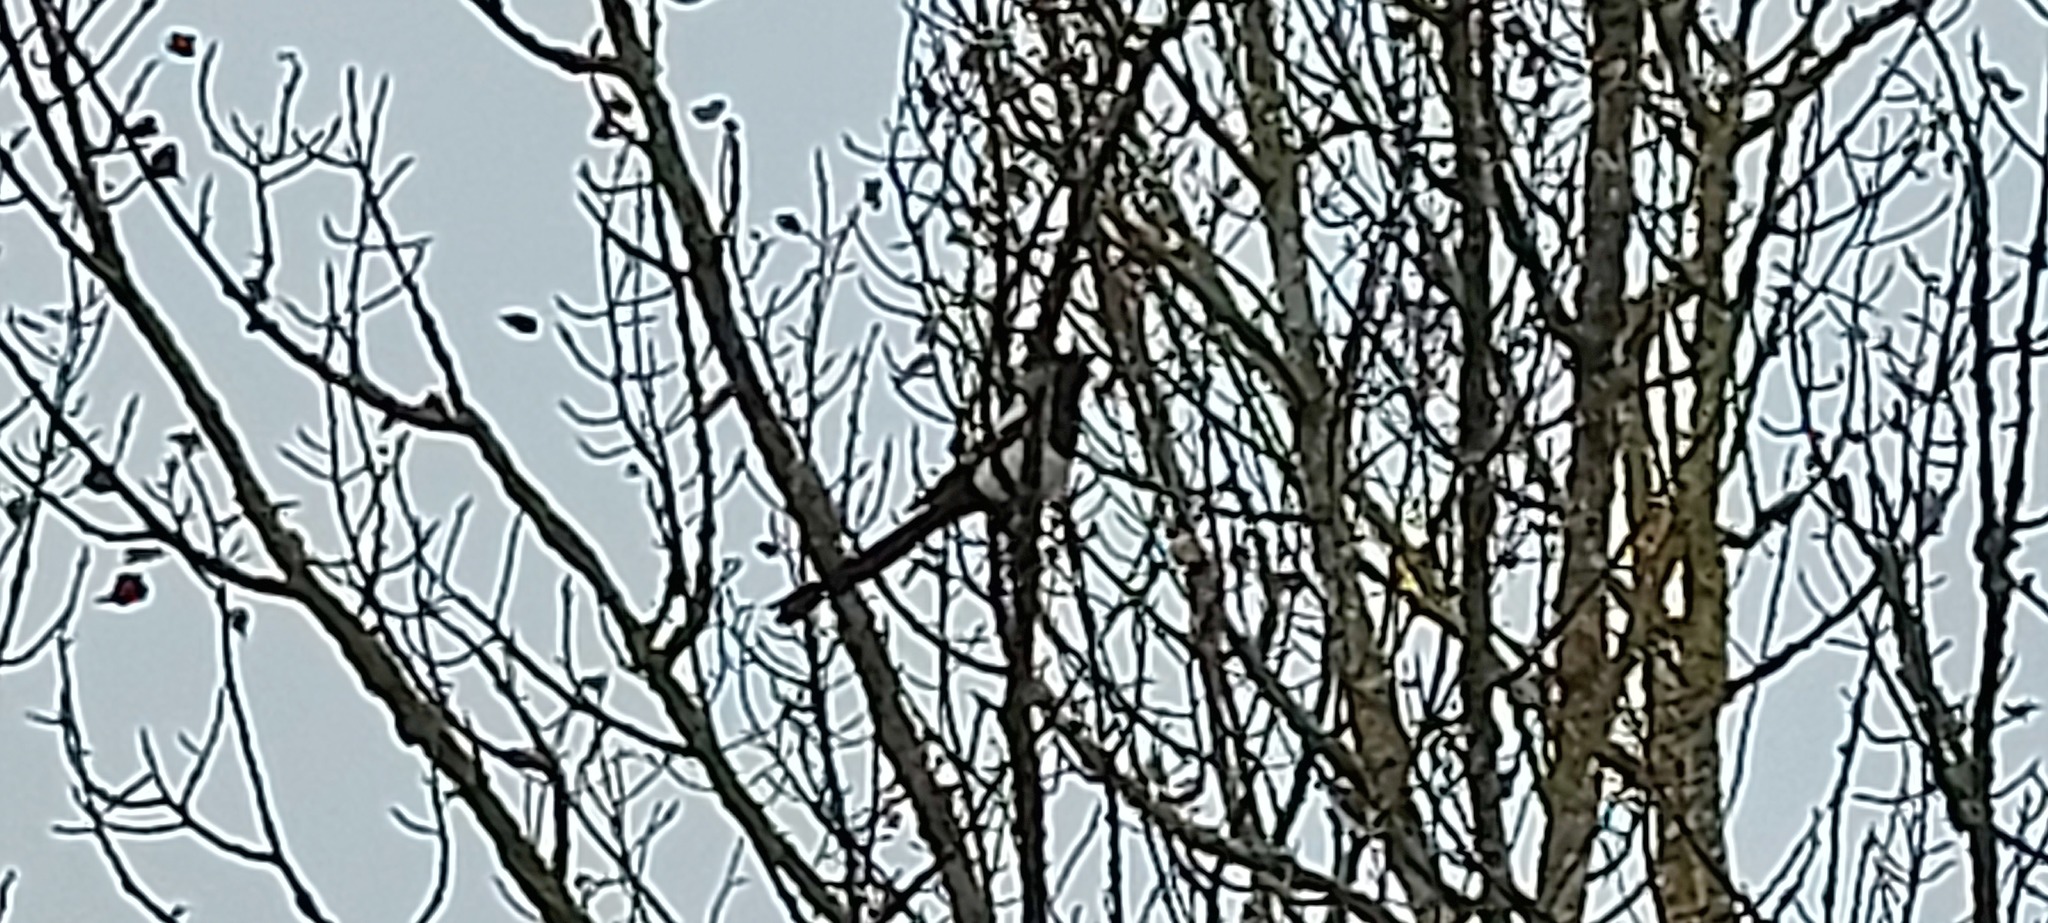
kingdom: Animalia
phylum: Chordata
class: Aves
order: Passeriformes
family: Corvidae
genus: Pica
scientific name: Pica pica
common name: Eurasian magpie
